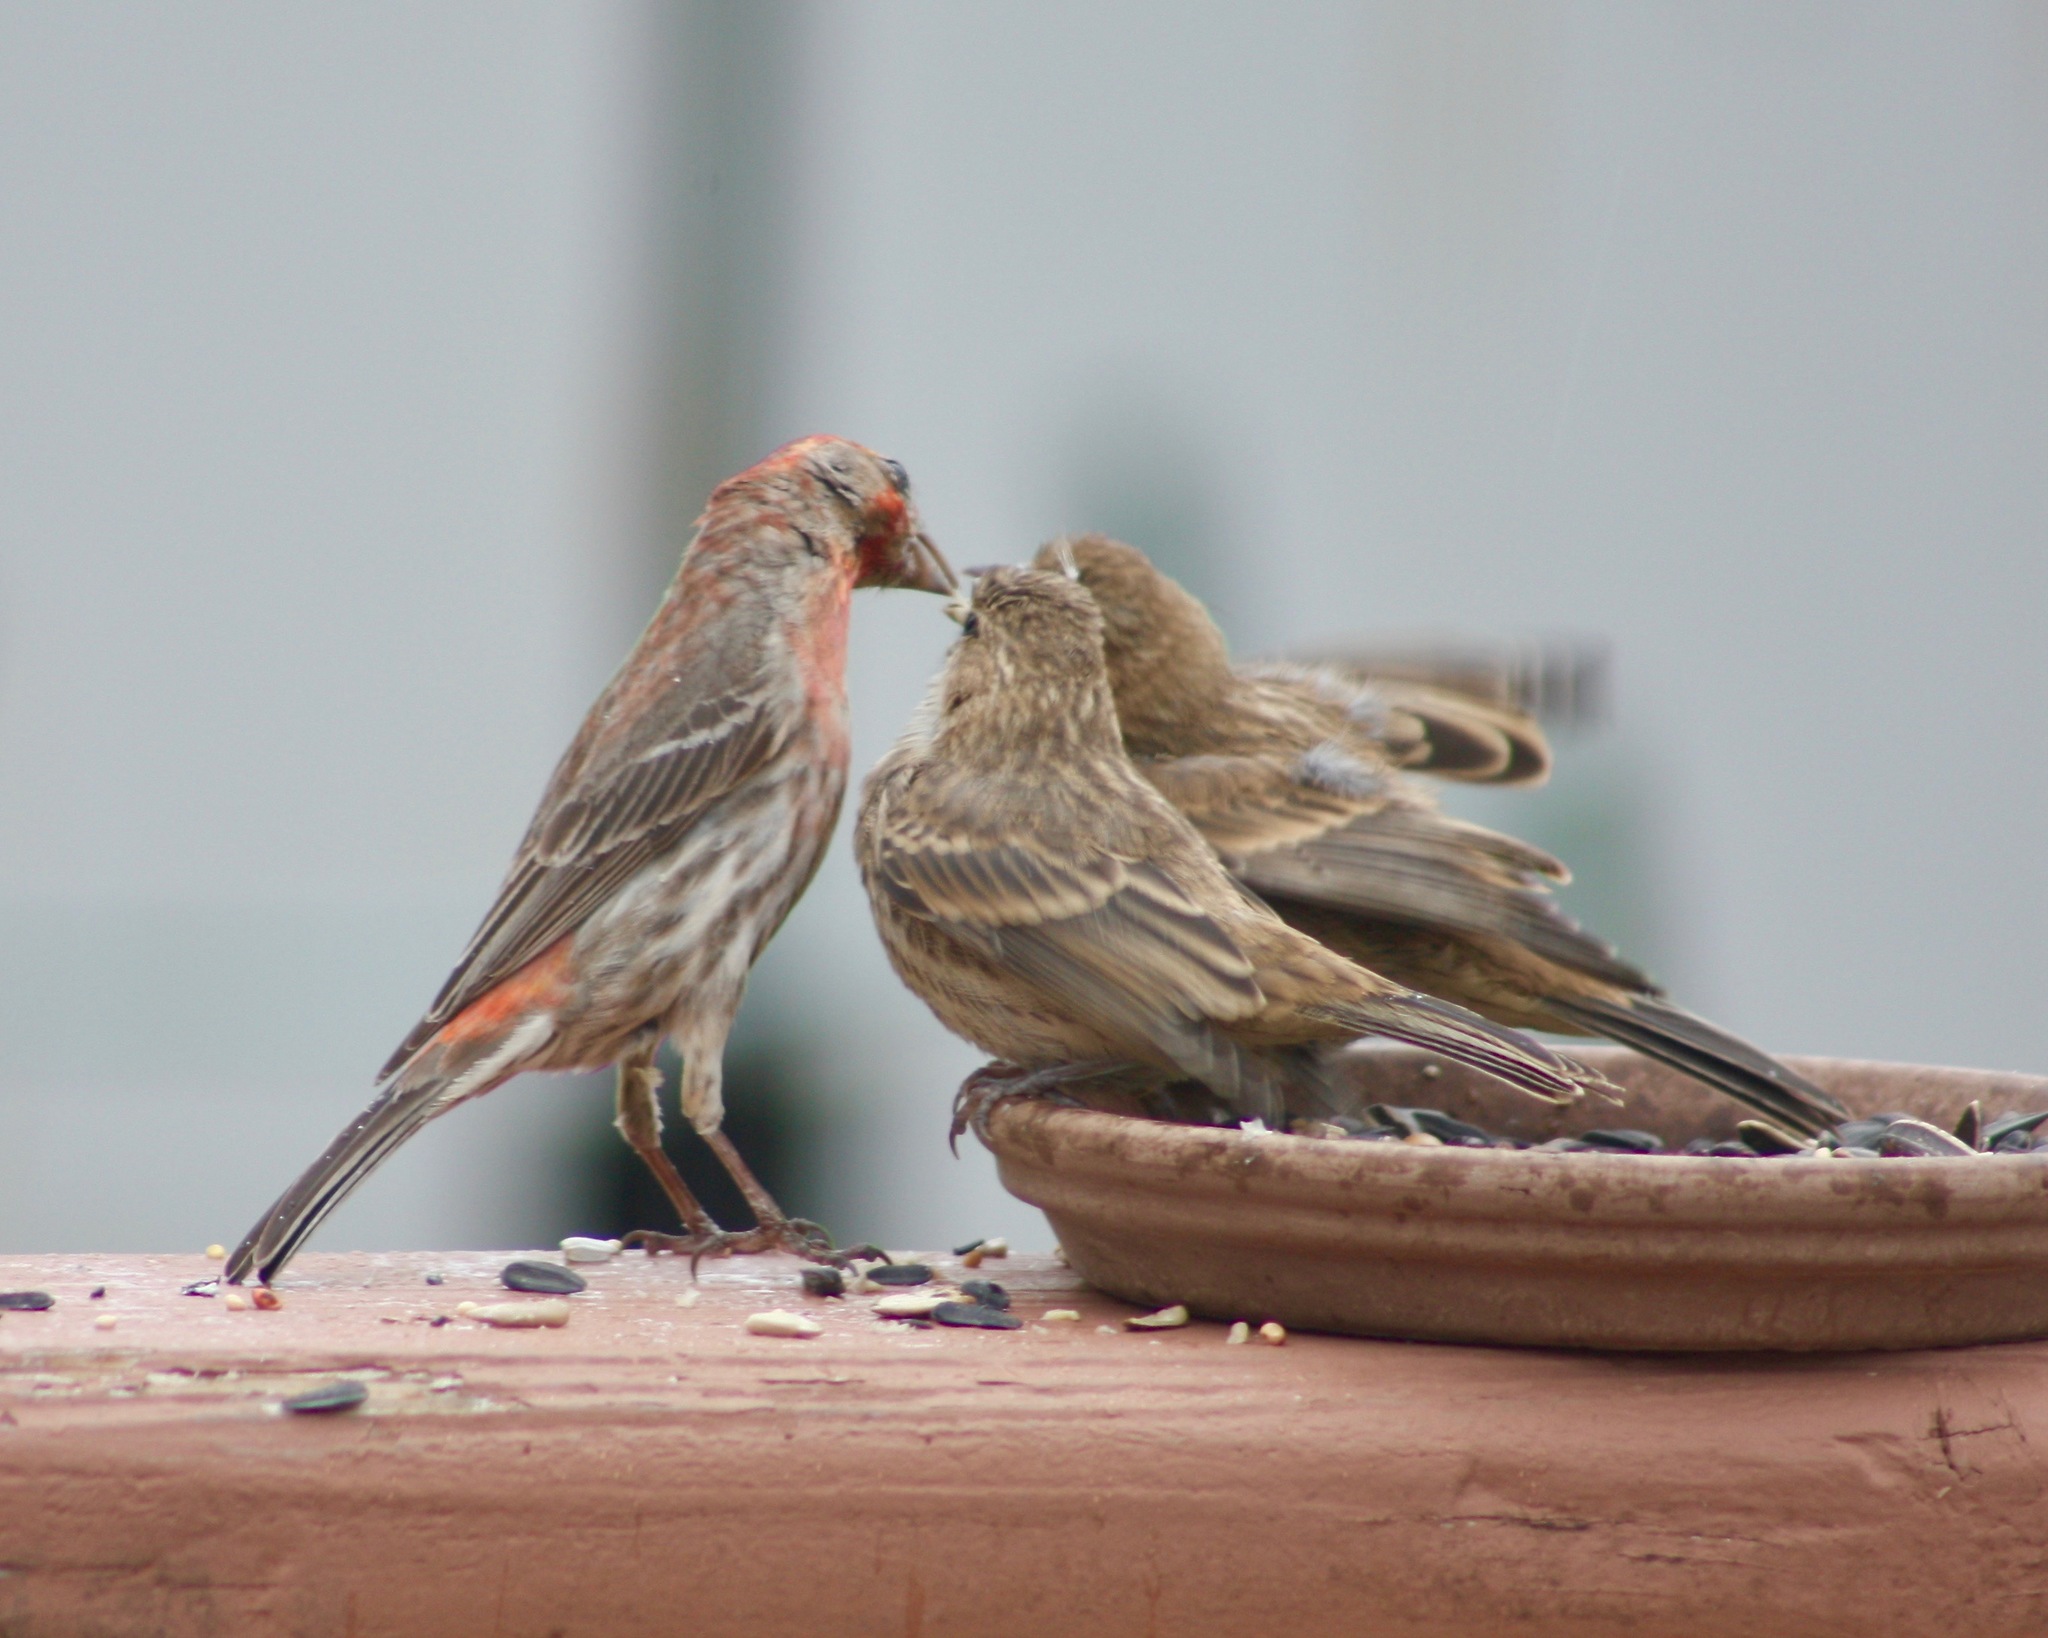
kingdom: Animalia
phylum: Chordata
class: Aves
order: Passeriformes
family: Fringillidae
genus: Haemorhous
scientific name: Haemorhous mexicanus
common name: House finch
